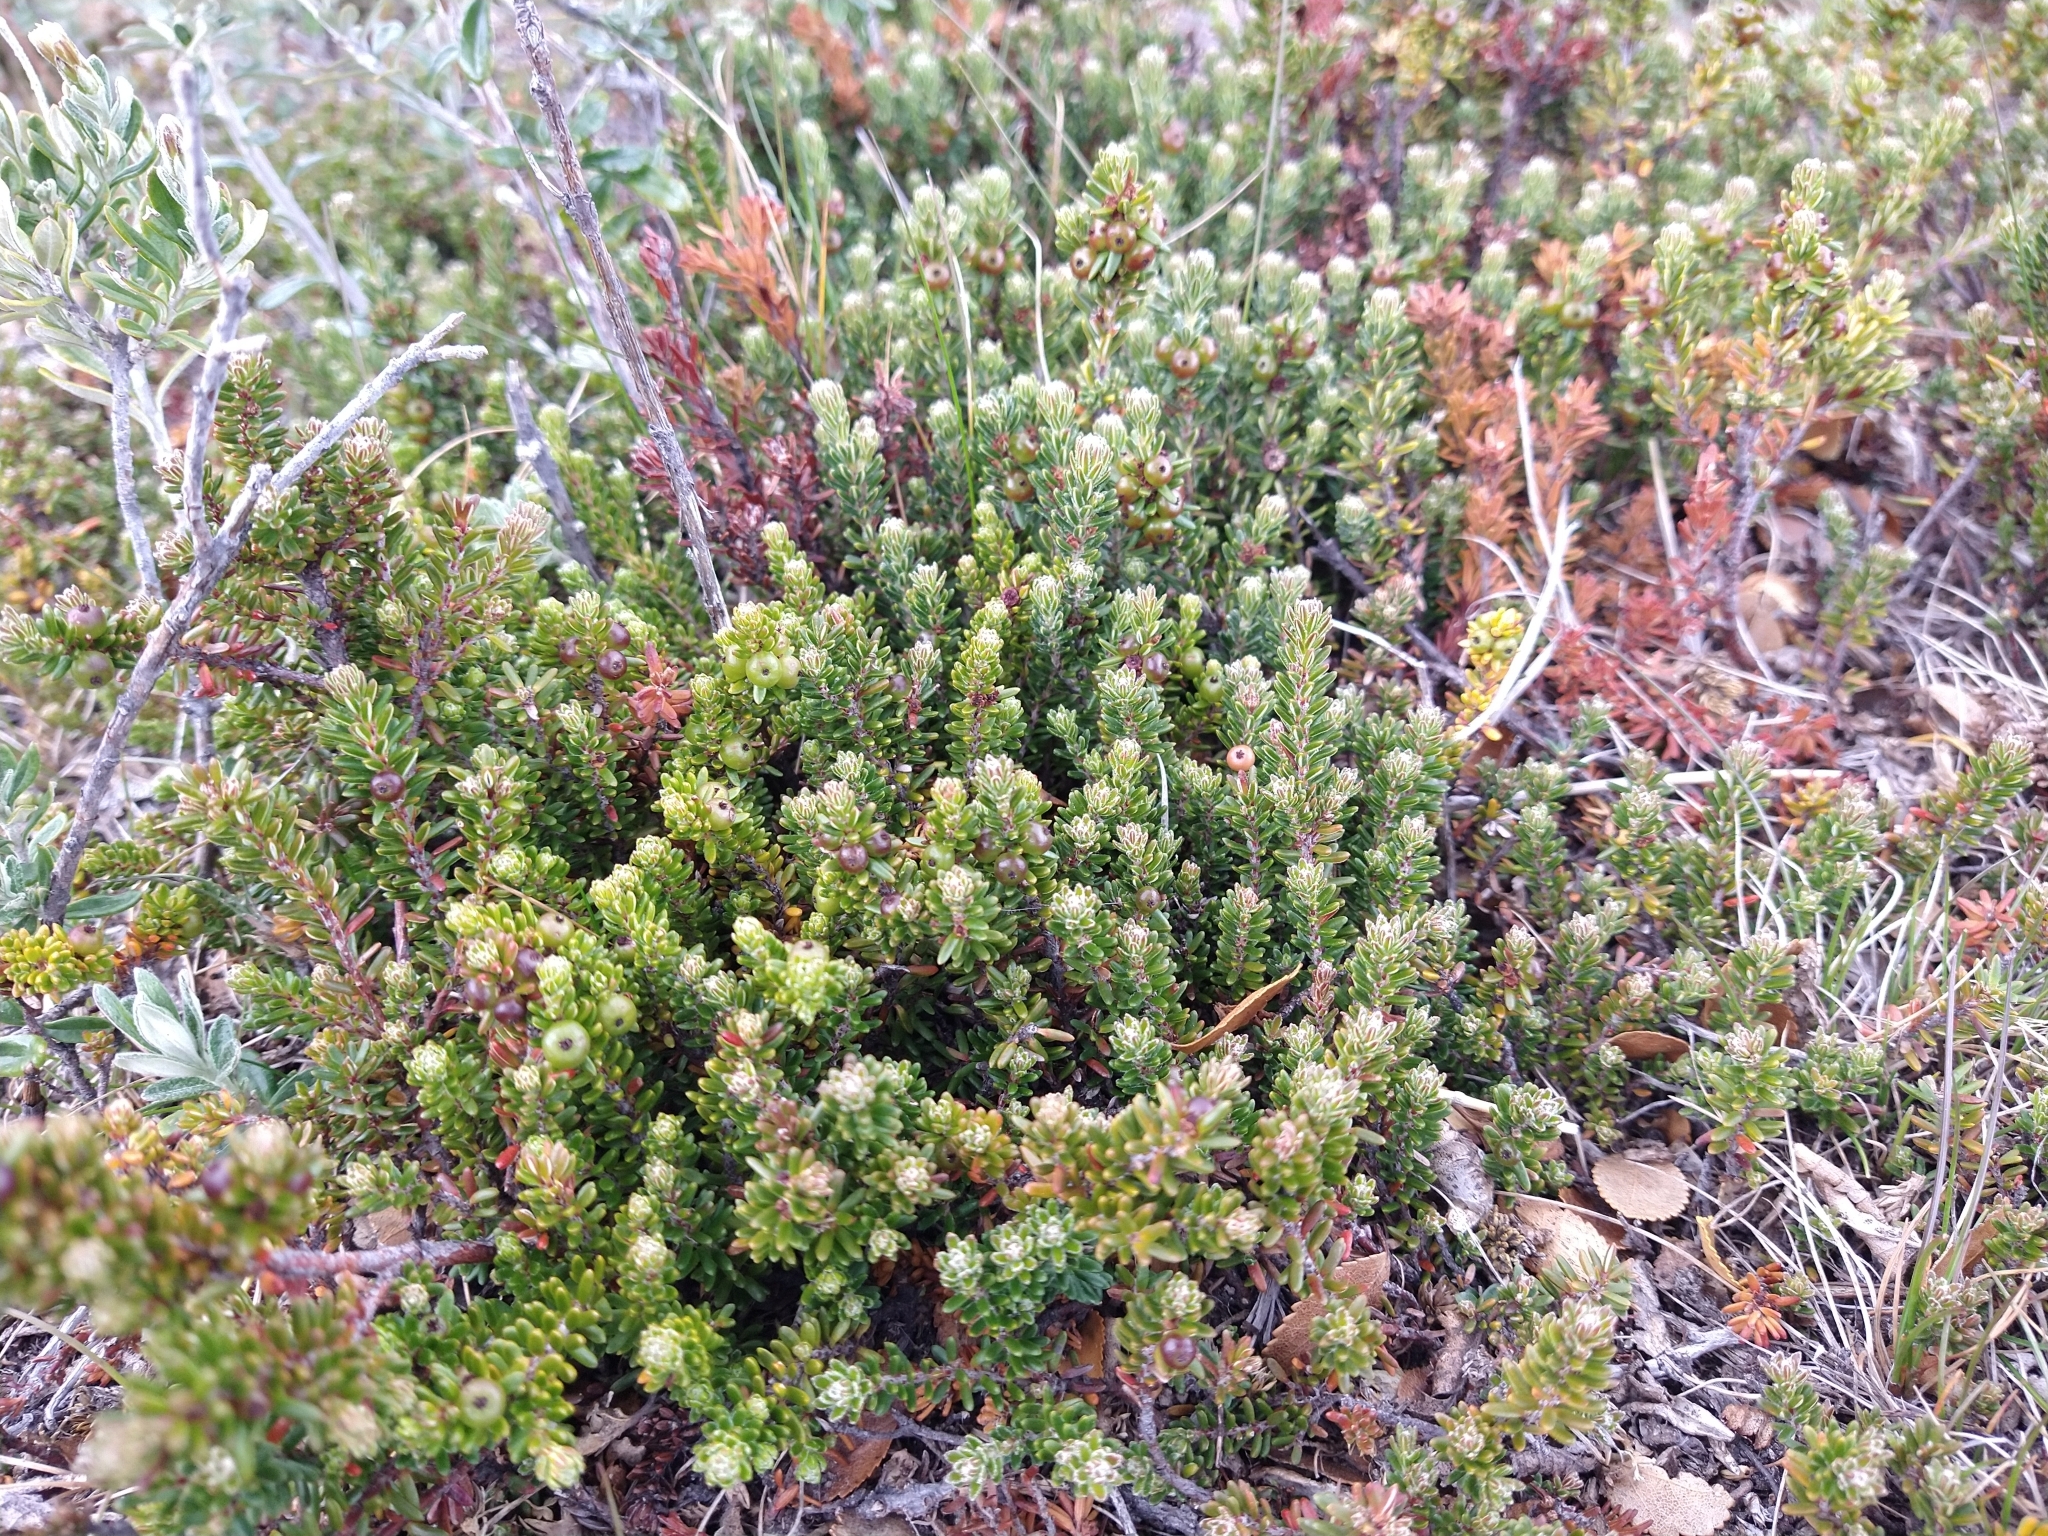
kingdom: Plantae
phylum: Tracheophyta
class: Magnoliopsida
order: Ericales
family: Ericaceae
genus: Empetrum
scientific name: Empetrum rubrum
